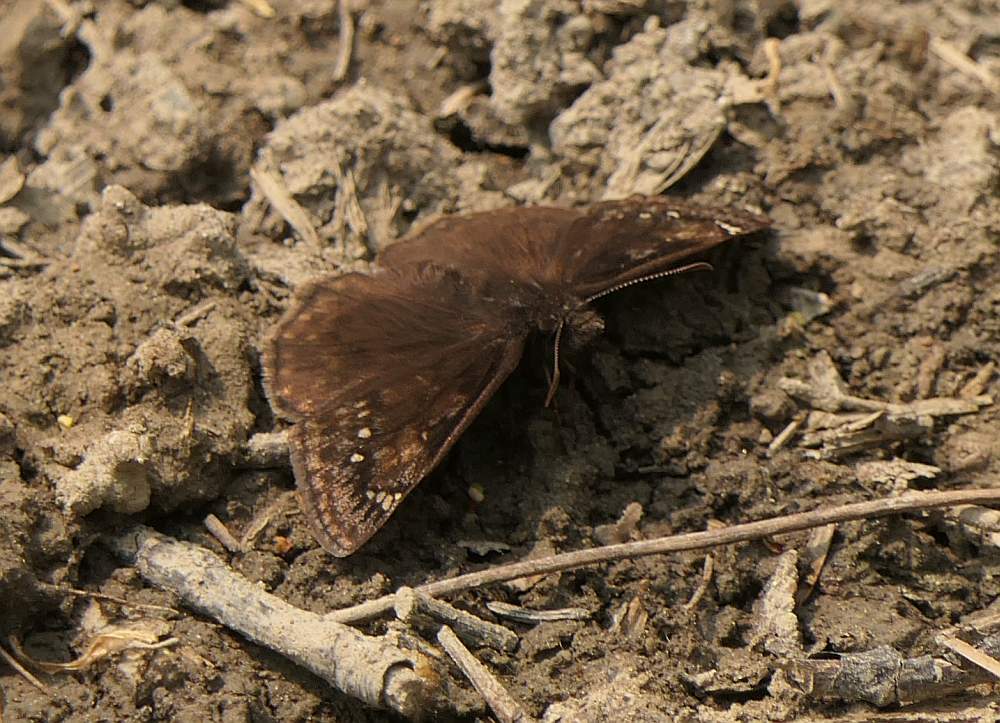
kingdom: Animalia
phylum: Arthropoda
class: Insecta
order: Lepidoptera
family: Hesperiidae
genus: Erynnis
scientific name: Erynnis juvenalis
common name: Juvenal's duskywing
